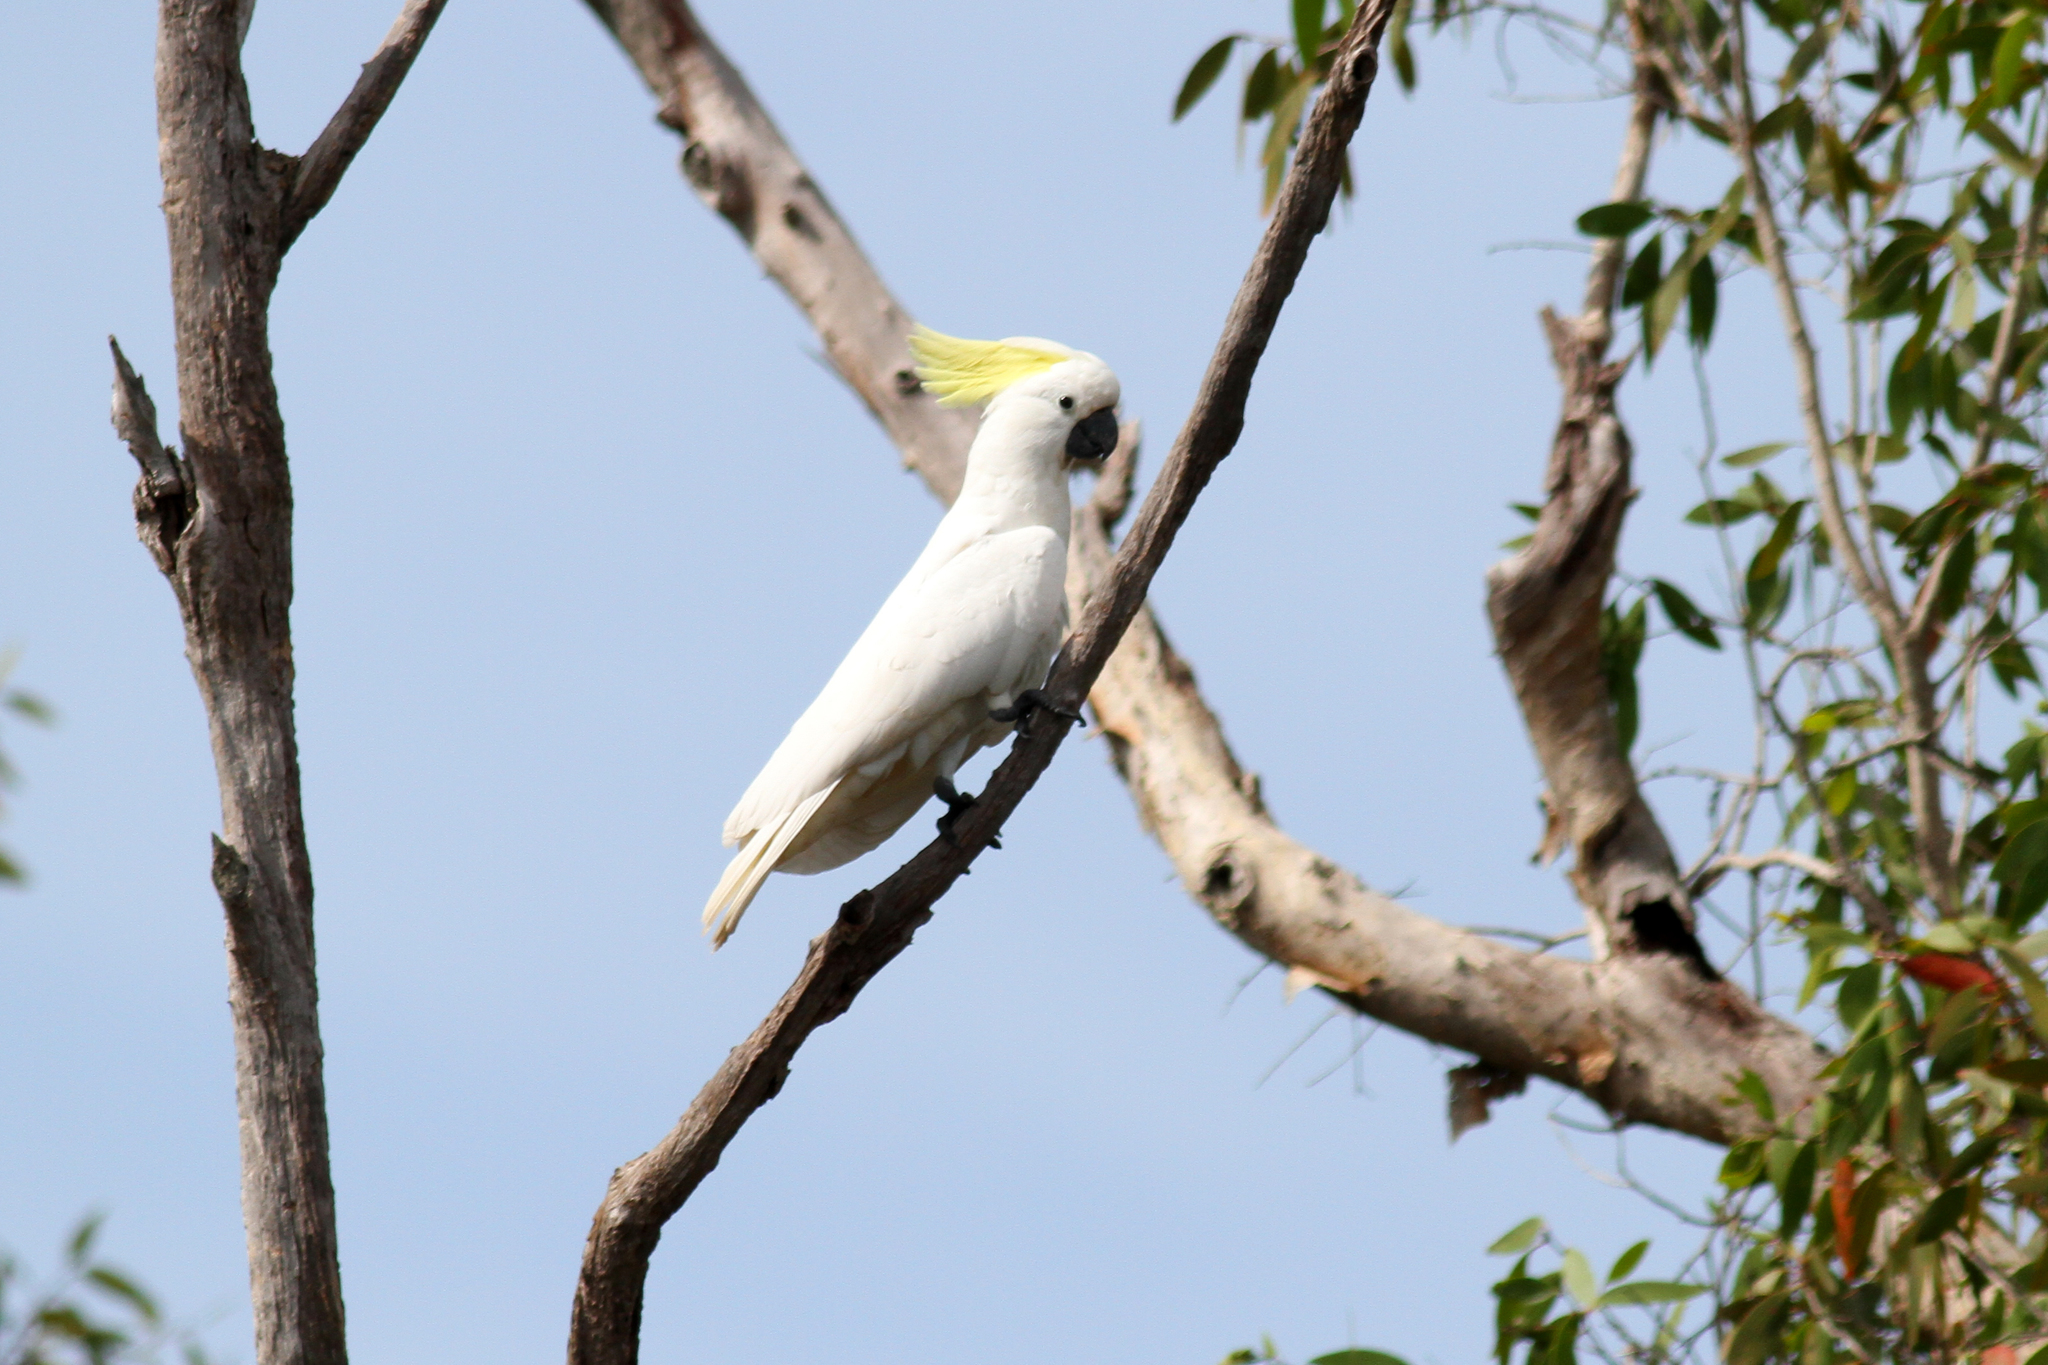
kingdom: Animalia
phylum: Chordata
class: Aves
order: Psittaciformes
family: Psittacidae
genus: Cacatua
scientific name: Cacatua galerita
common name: Sulphur-crested cockatoo
